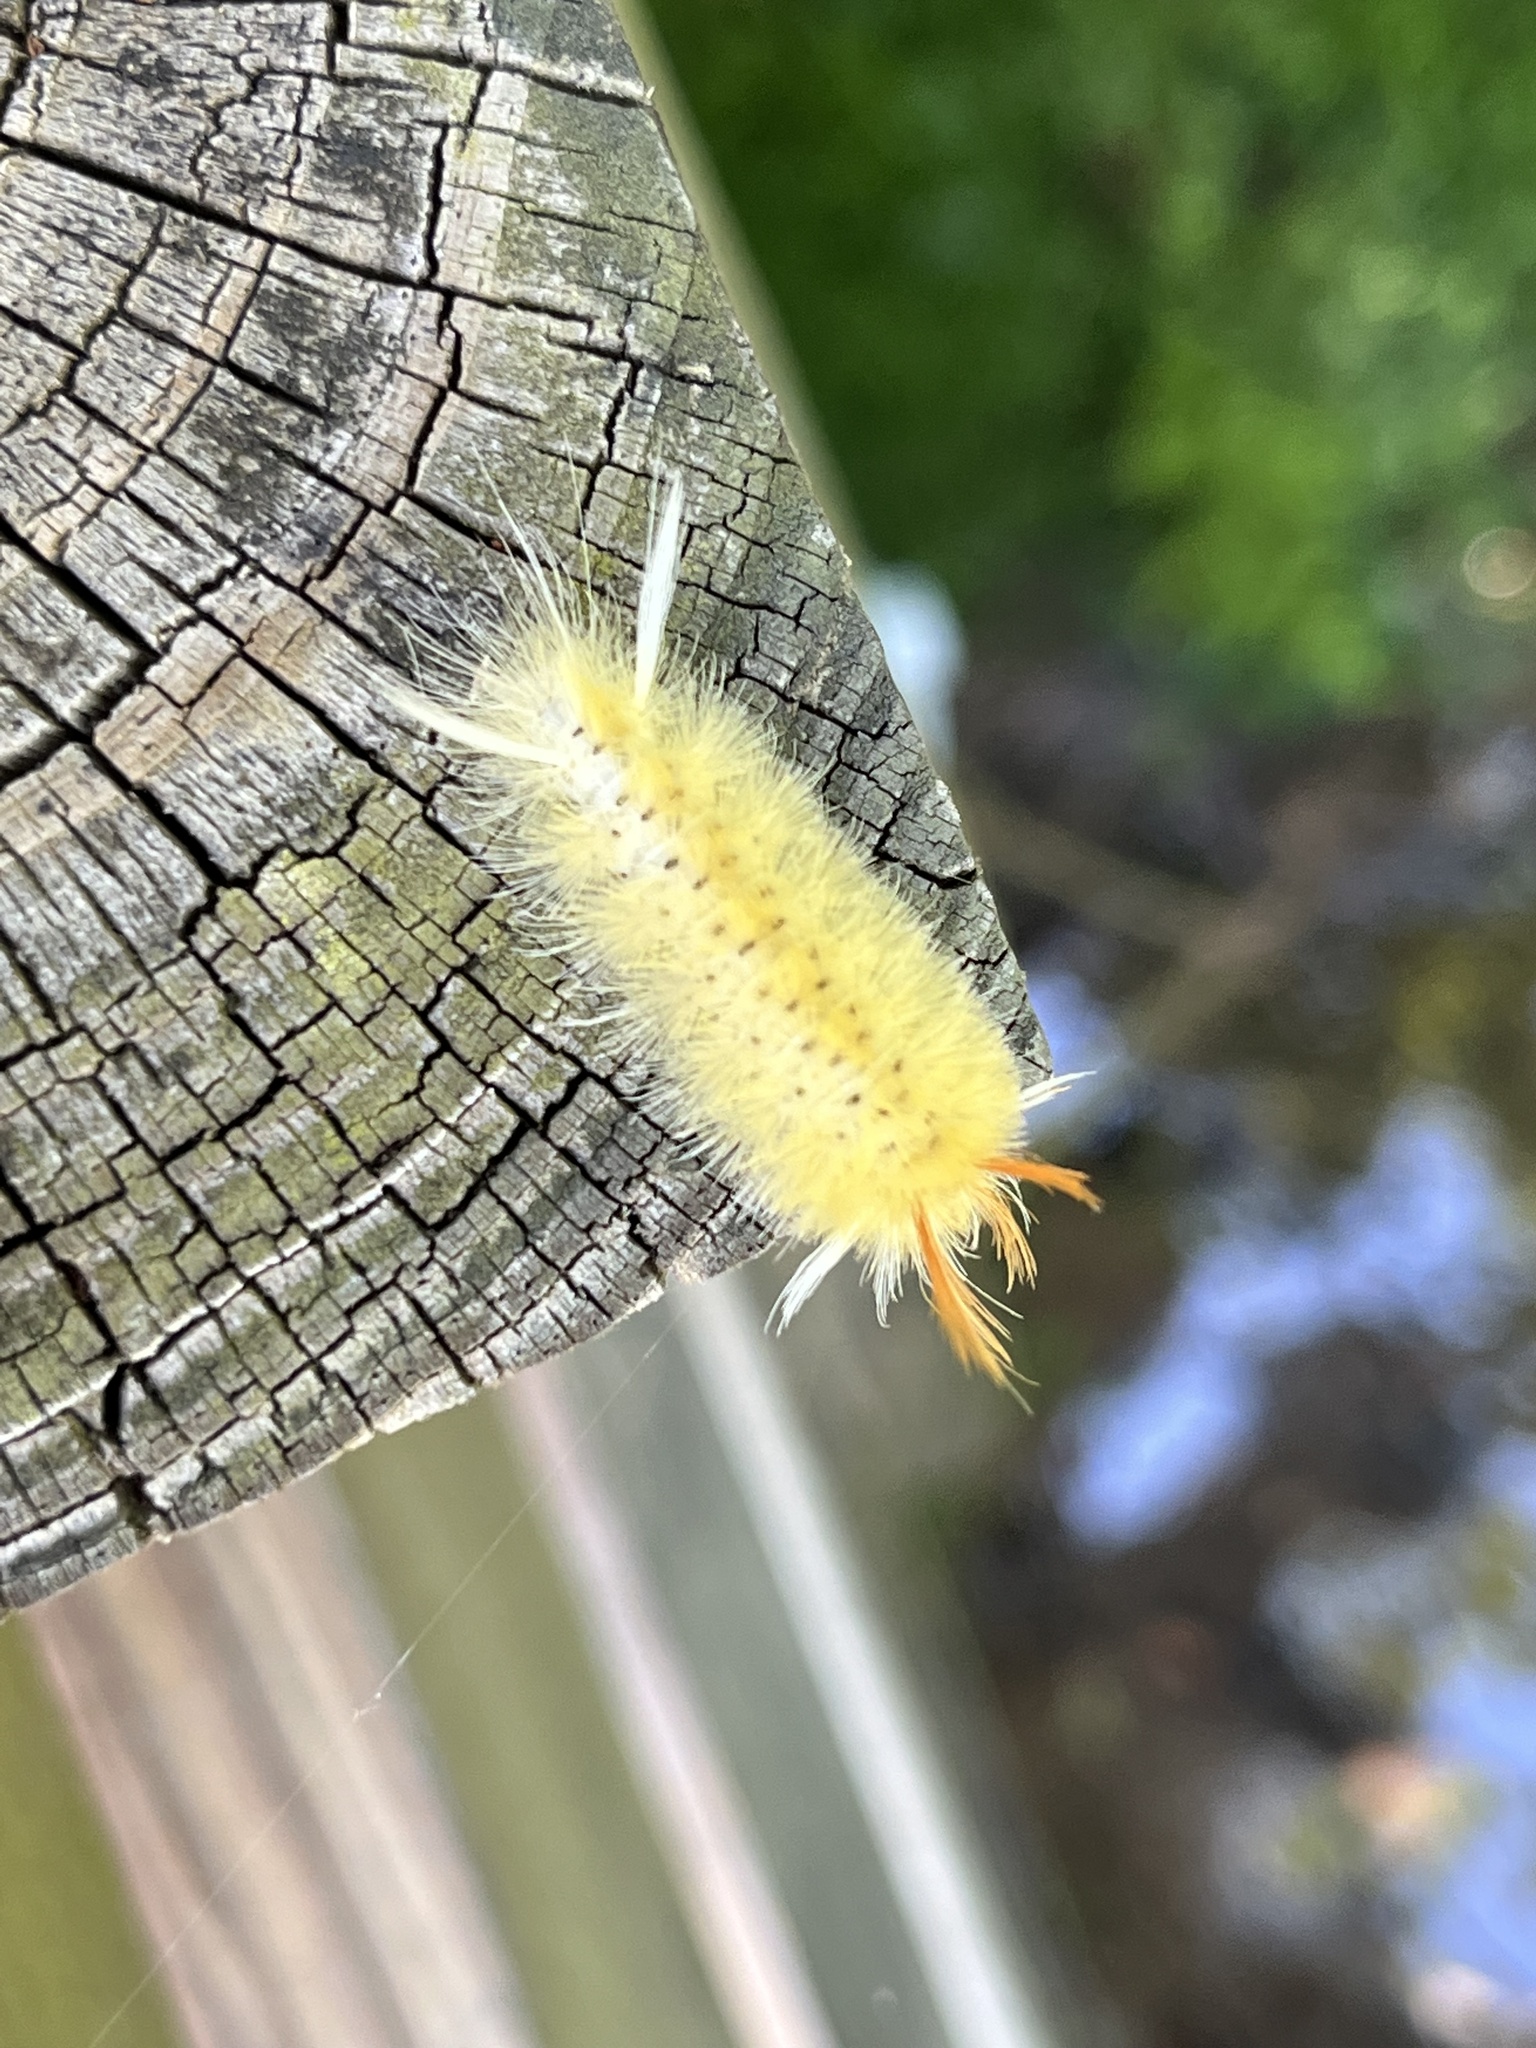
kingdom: Animalia
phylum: Arthropoda
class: Insecta
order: Lepidoptera
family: Erebidae
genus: Halysidota
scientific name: Halysidota harrisii
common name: Sycamore tussock moth
